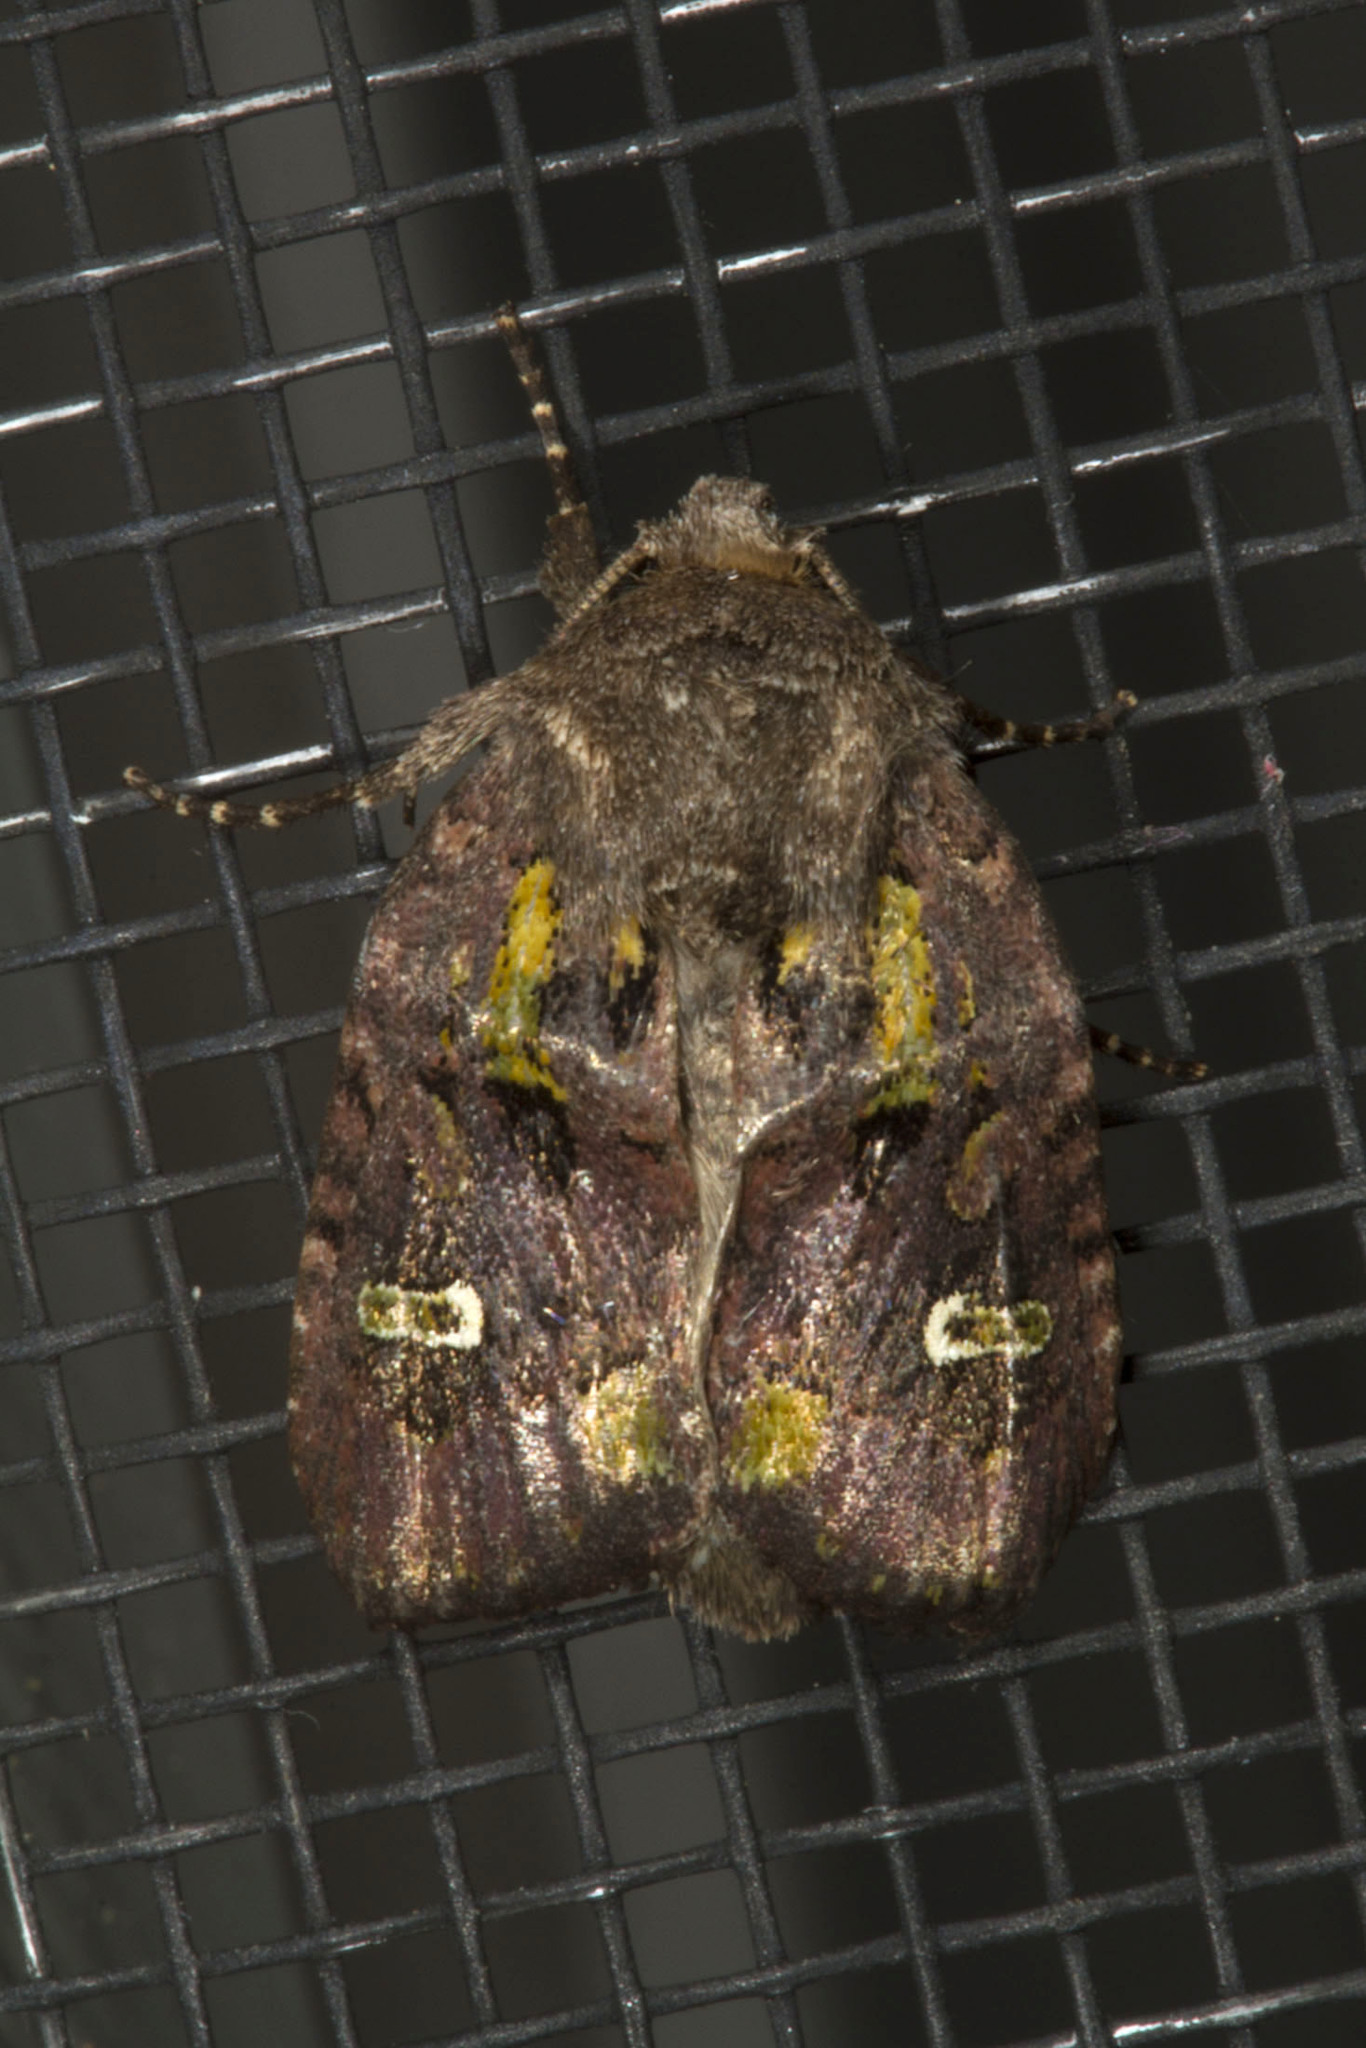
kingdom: Animalia
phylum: Arthropoda
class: Insecta
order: Lepidoptera
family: Noctuidae
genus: Lacinipolia
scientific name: Lacinipolia renigera
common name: Kidney-spotted minor
